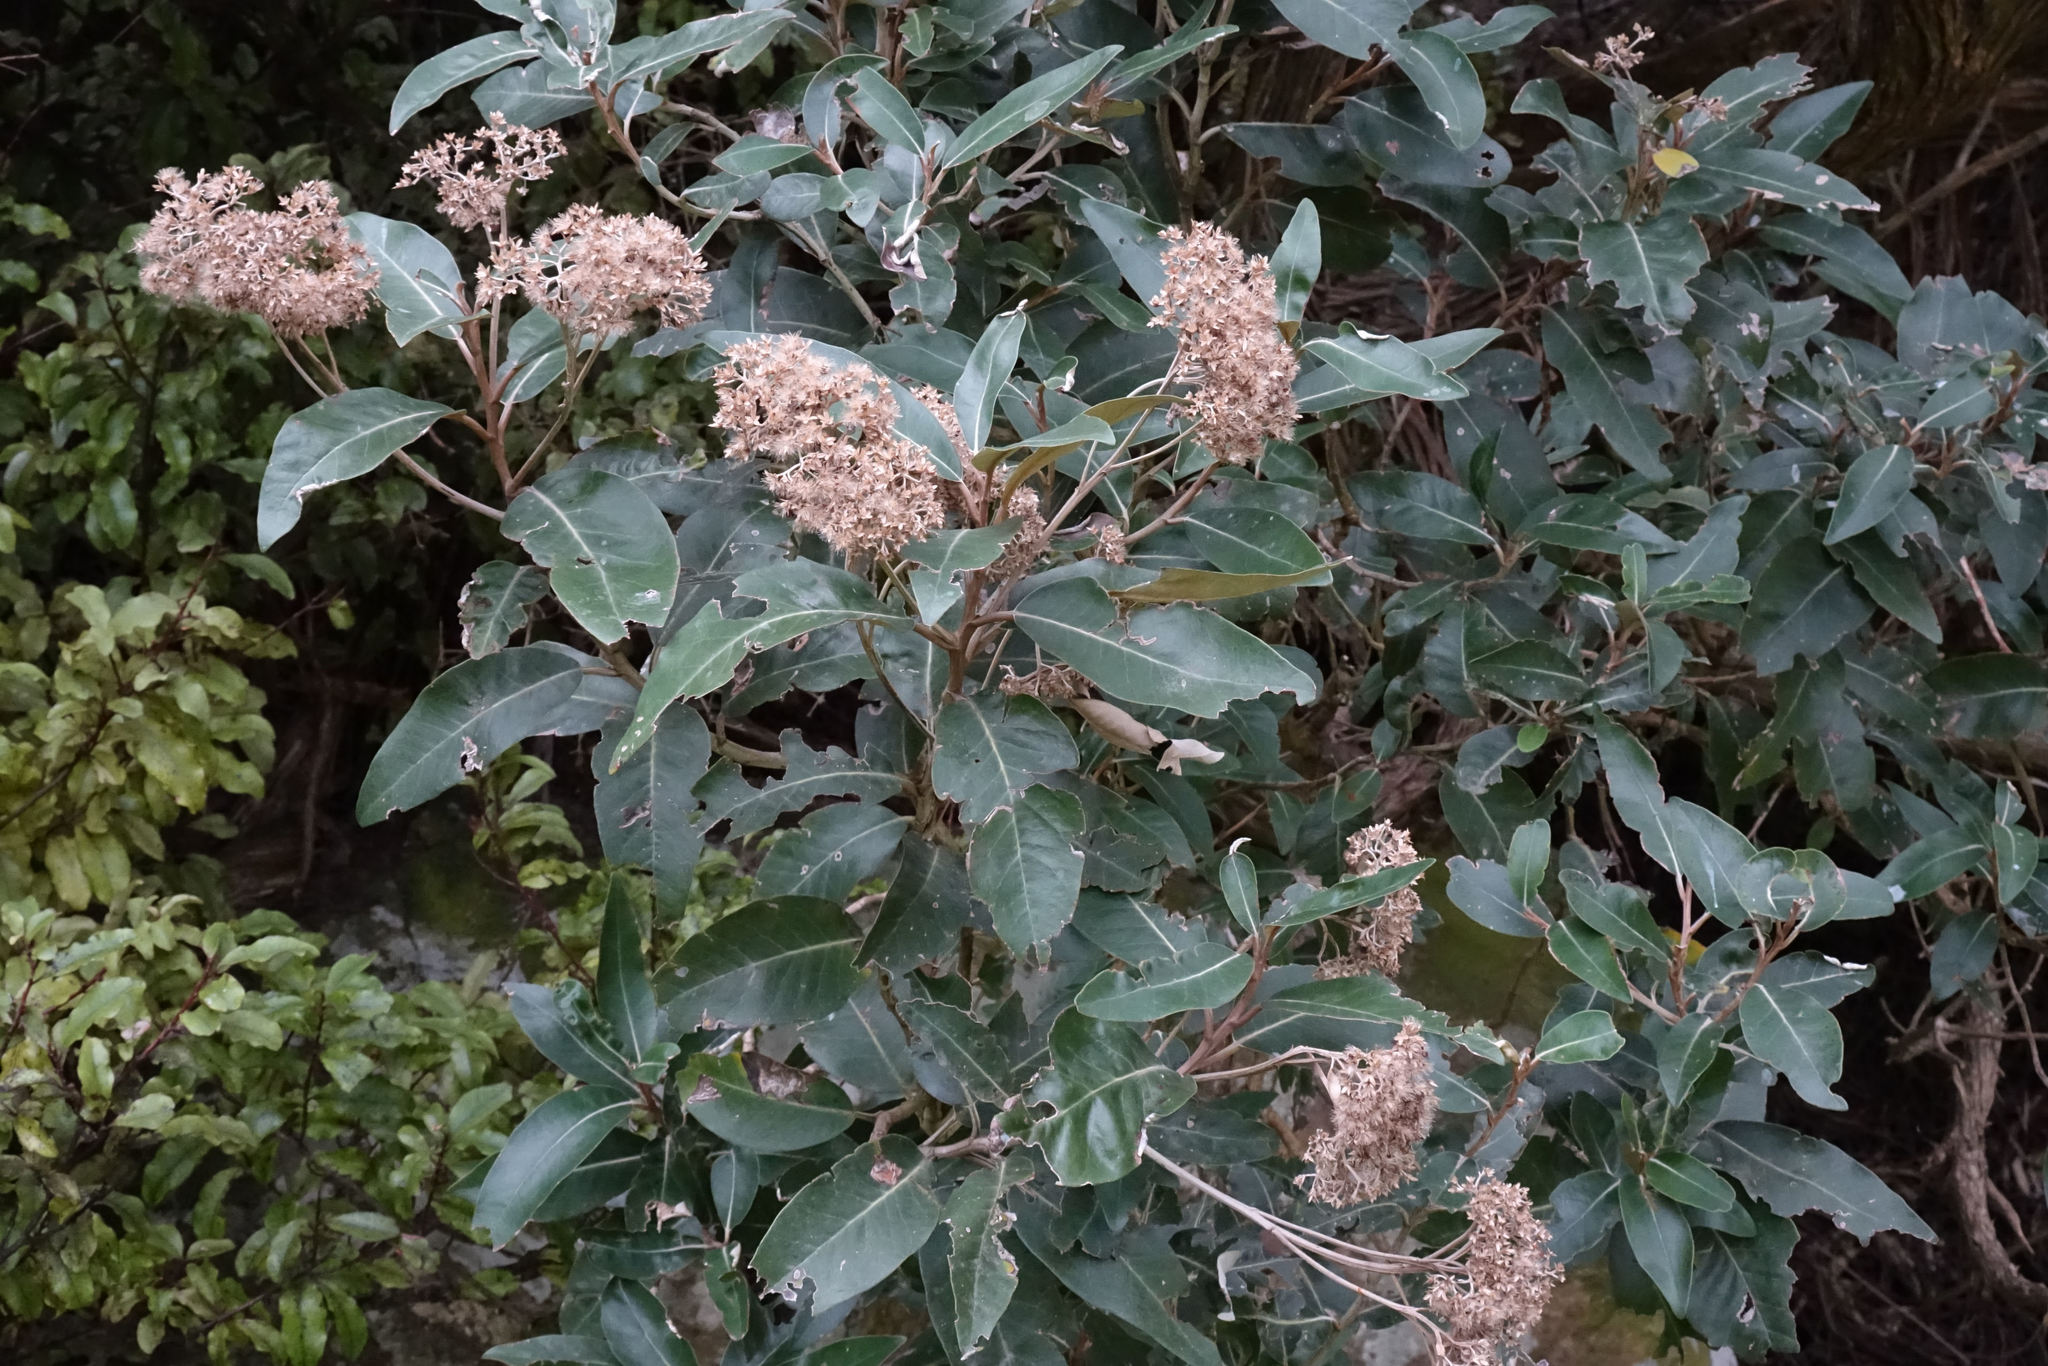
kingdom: Plantae
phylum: Tracheophyta
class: Magnoliopsida
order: Asterales
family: Asteraceae
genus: Olearia
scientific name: Olearia avicenniifolia
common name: Mangrove-leaf daisybush
